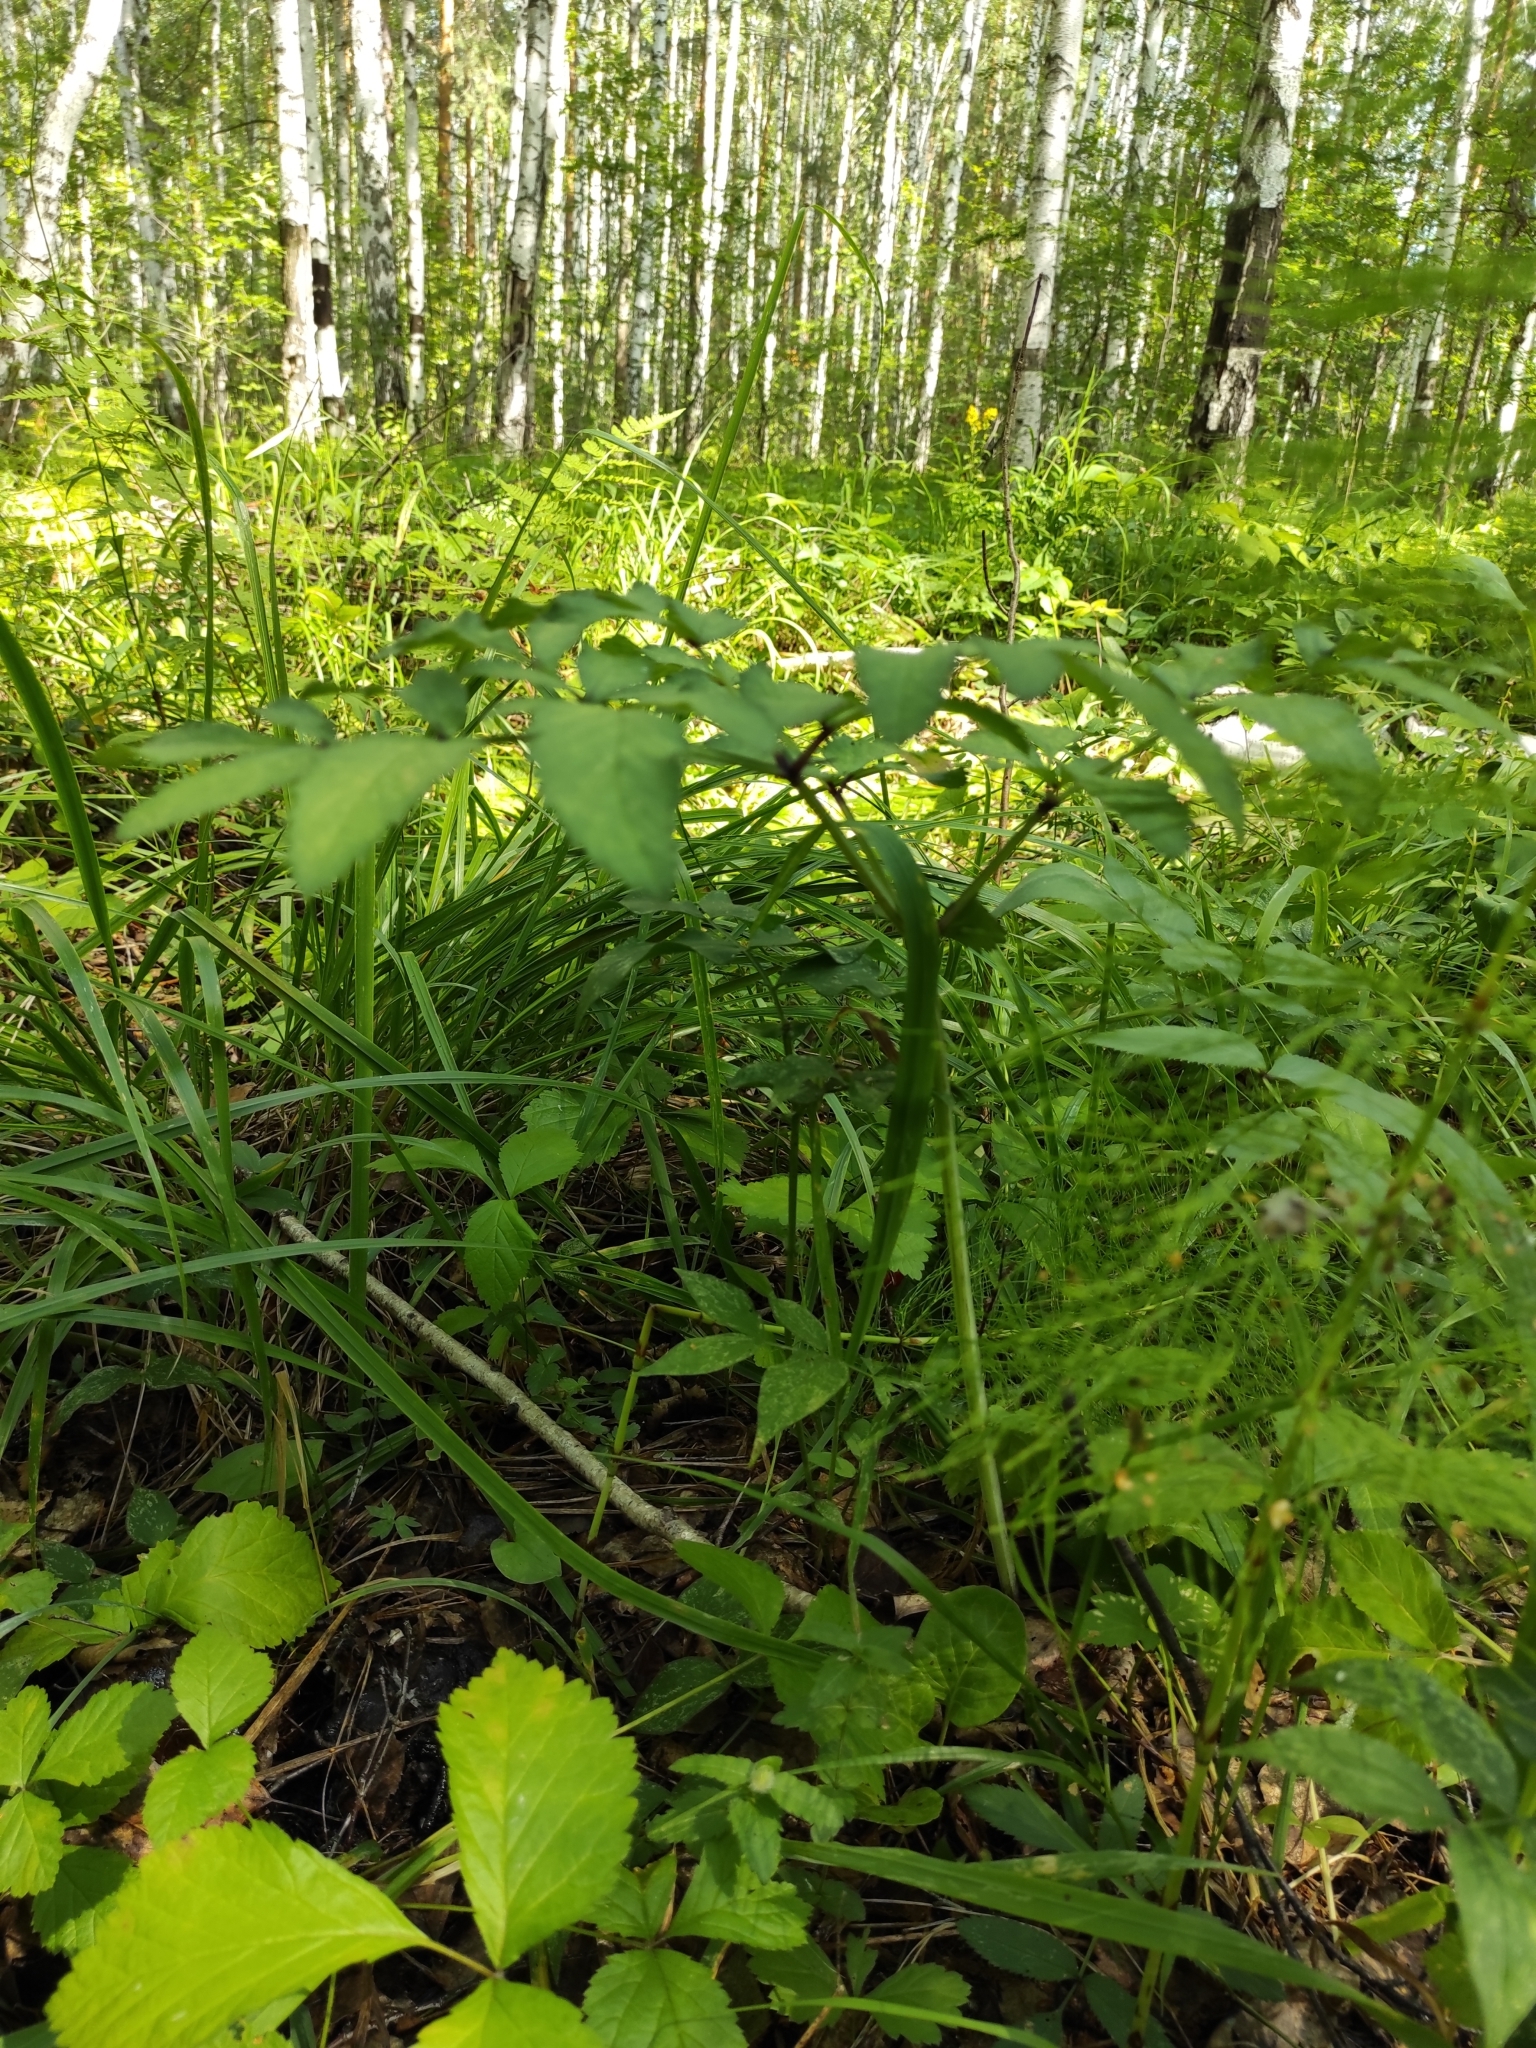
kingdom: Plantae
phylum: Tracheophyta
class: Magnoliopsida
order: Apiales
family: Apiaceae
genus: Angelica
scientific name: Angelica sylvestris
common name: Wild angelica
